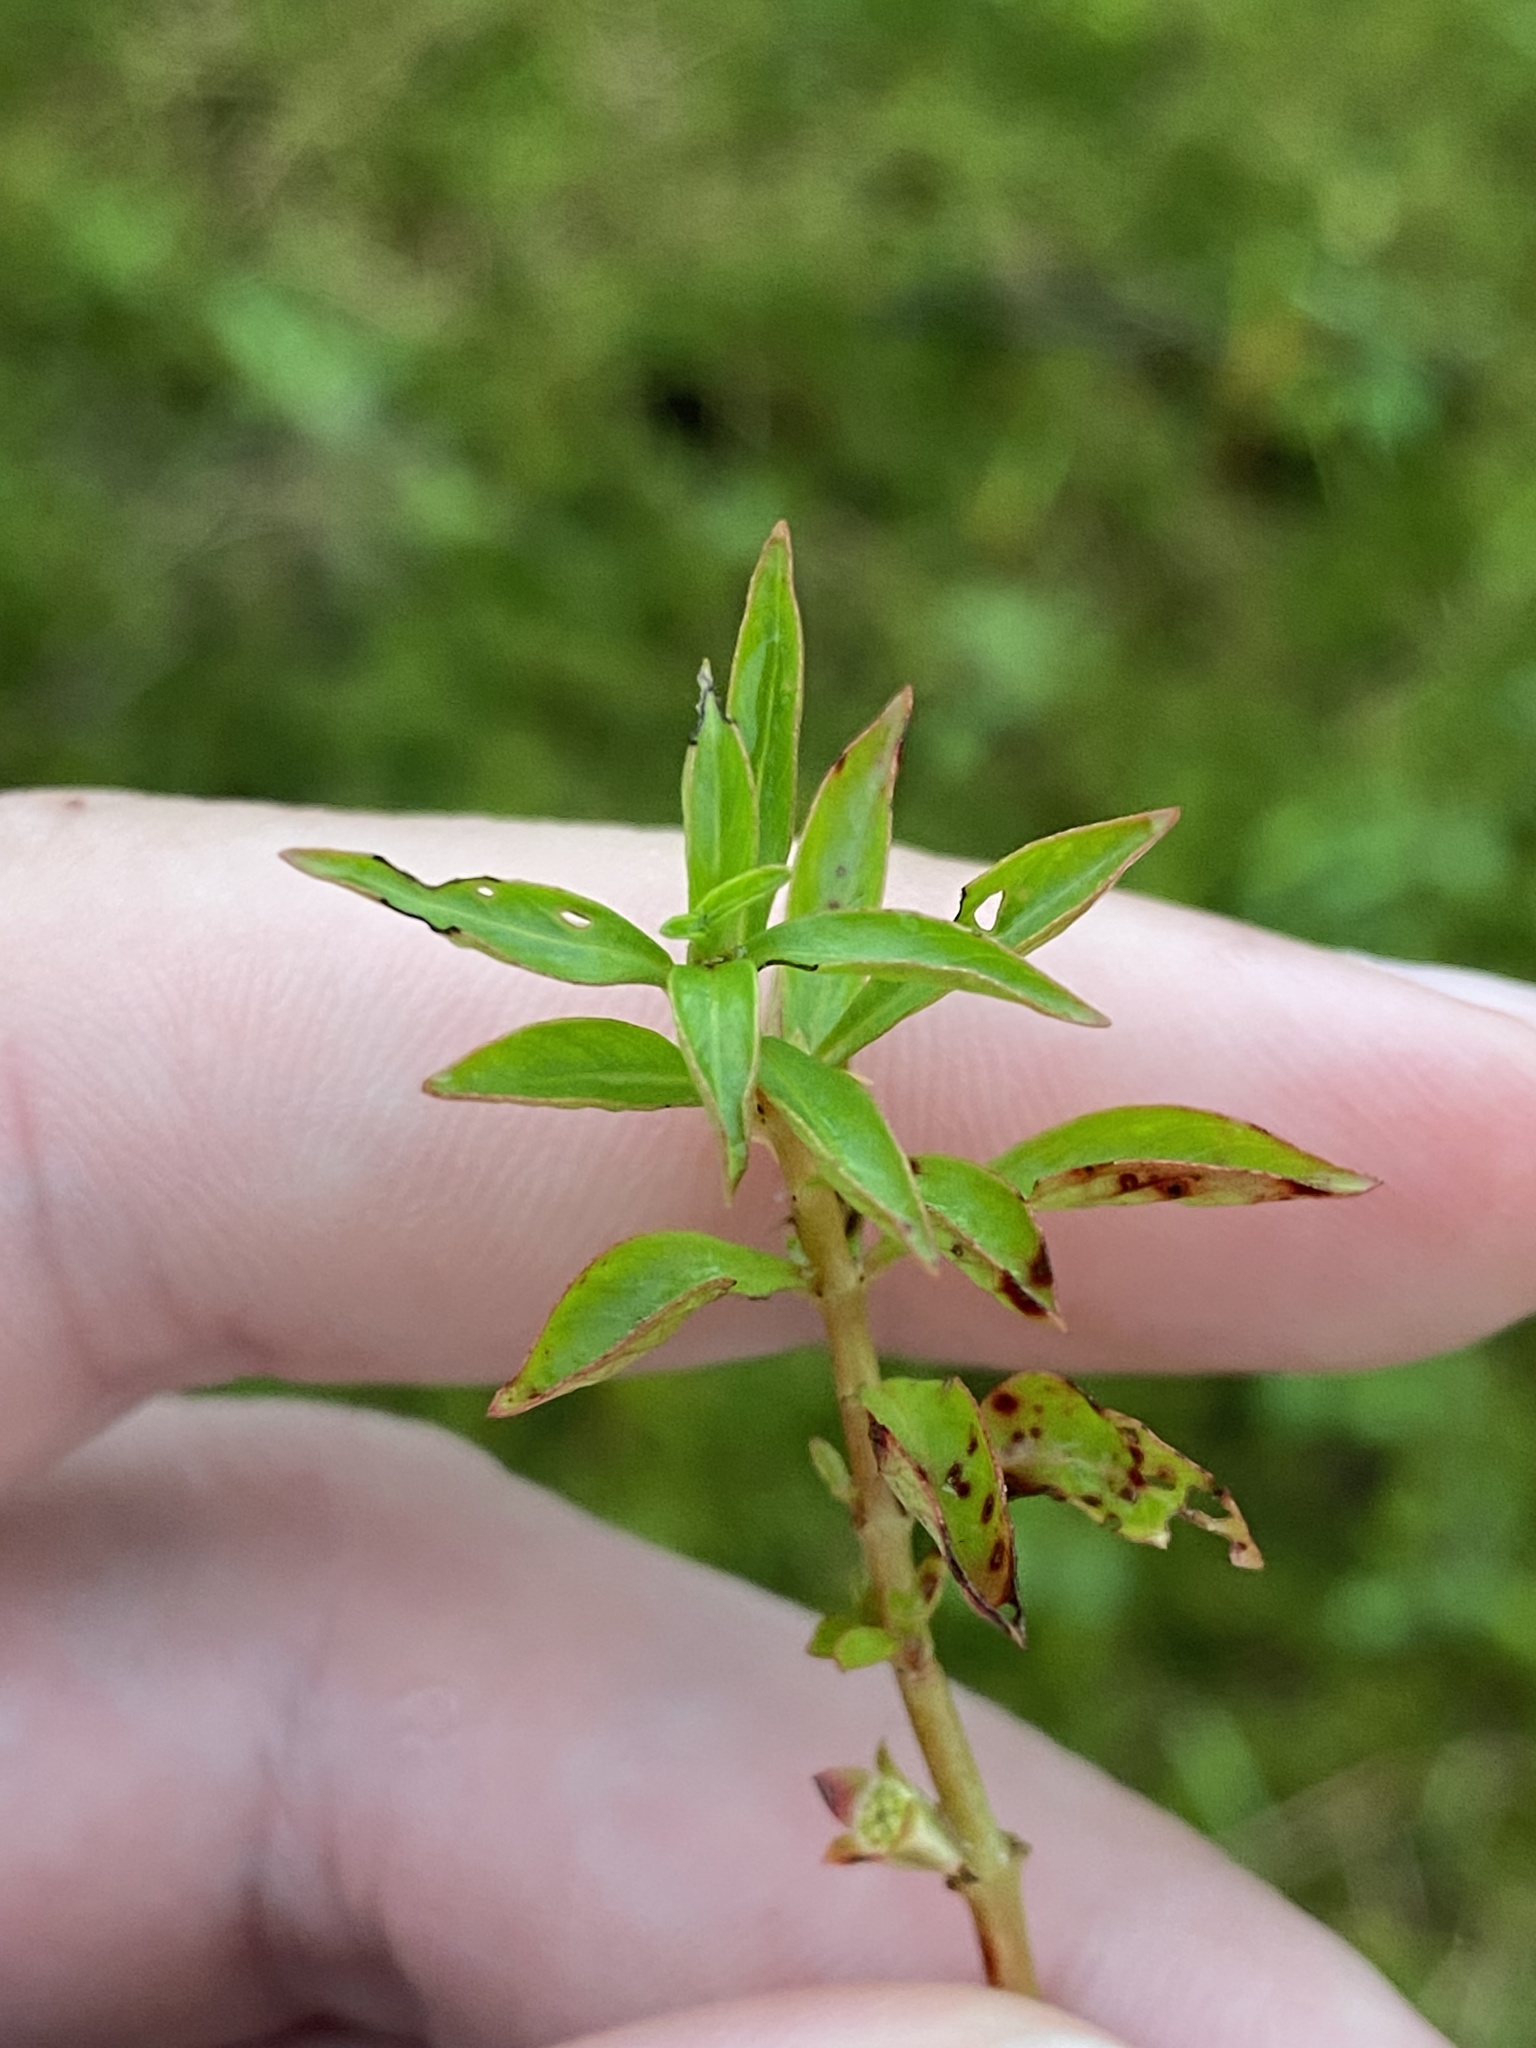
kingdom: Plantae
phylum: Tracheophyta
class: Magnoliopsida
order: Myrtales
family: Onagraceae
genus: Ludwigia
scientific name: Ludwigia palustris
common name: Hampshire-purslane
